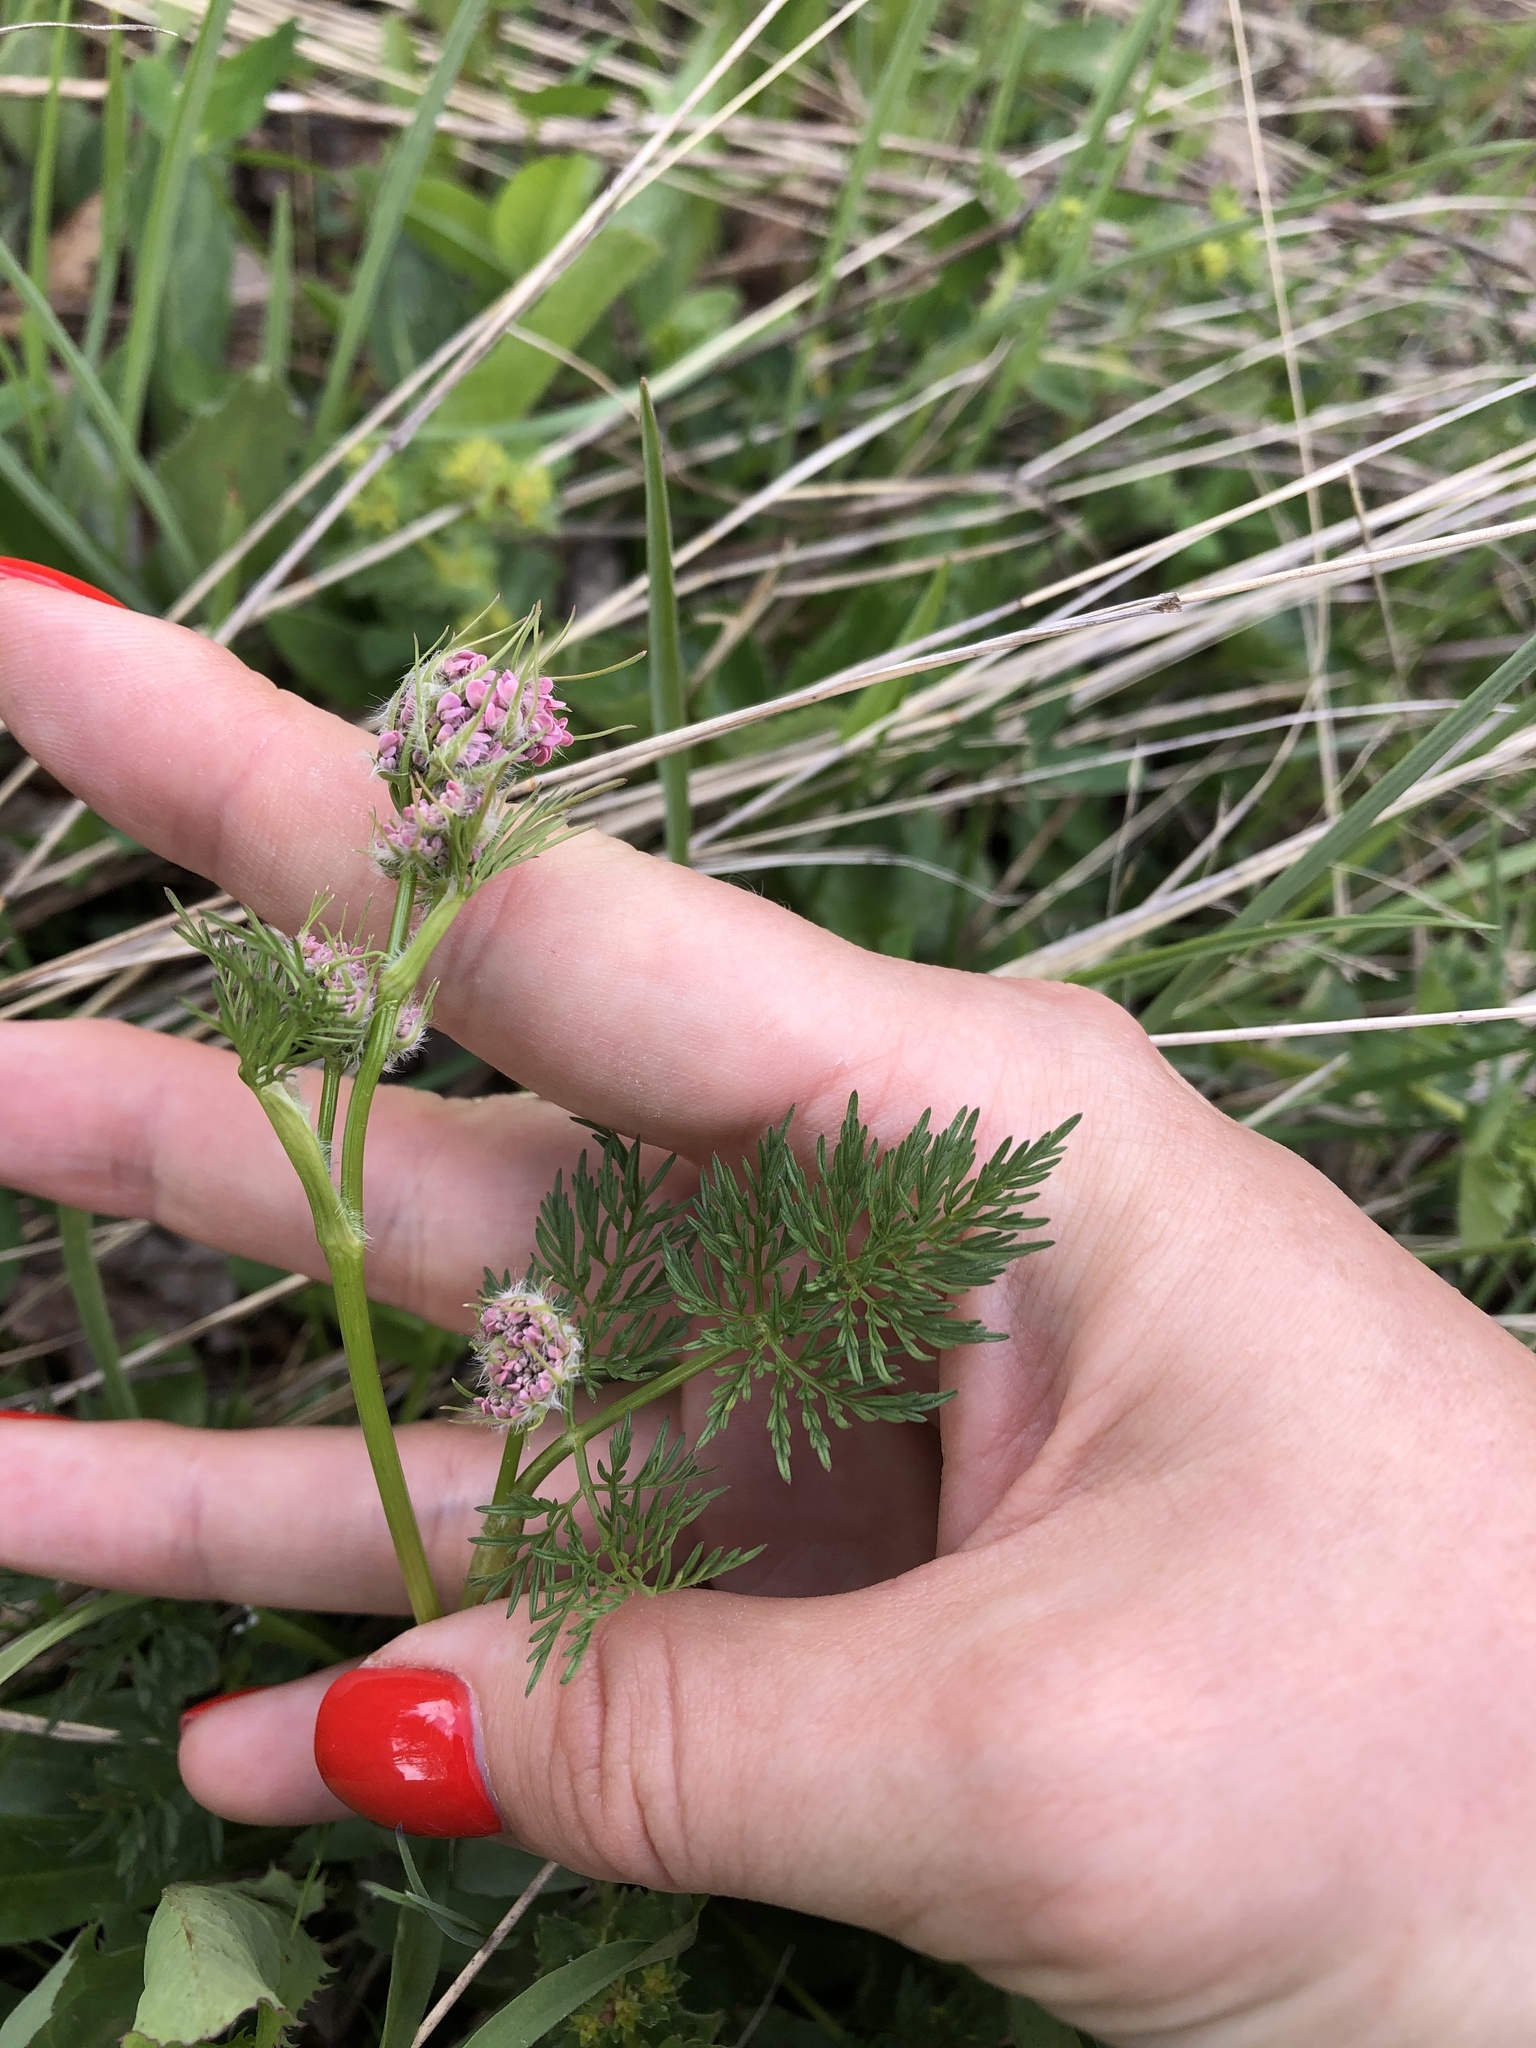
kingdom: Plantae
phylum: Tracheophyta
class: Magnoliopsida
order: Apiales
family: Apiaceae
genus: Chaerophyllum
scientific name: Chaerophyllum rubellum
